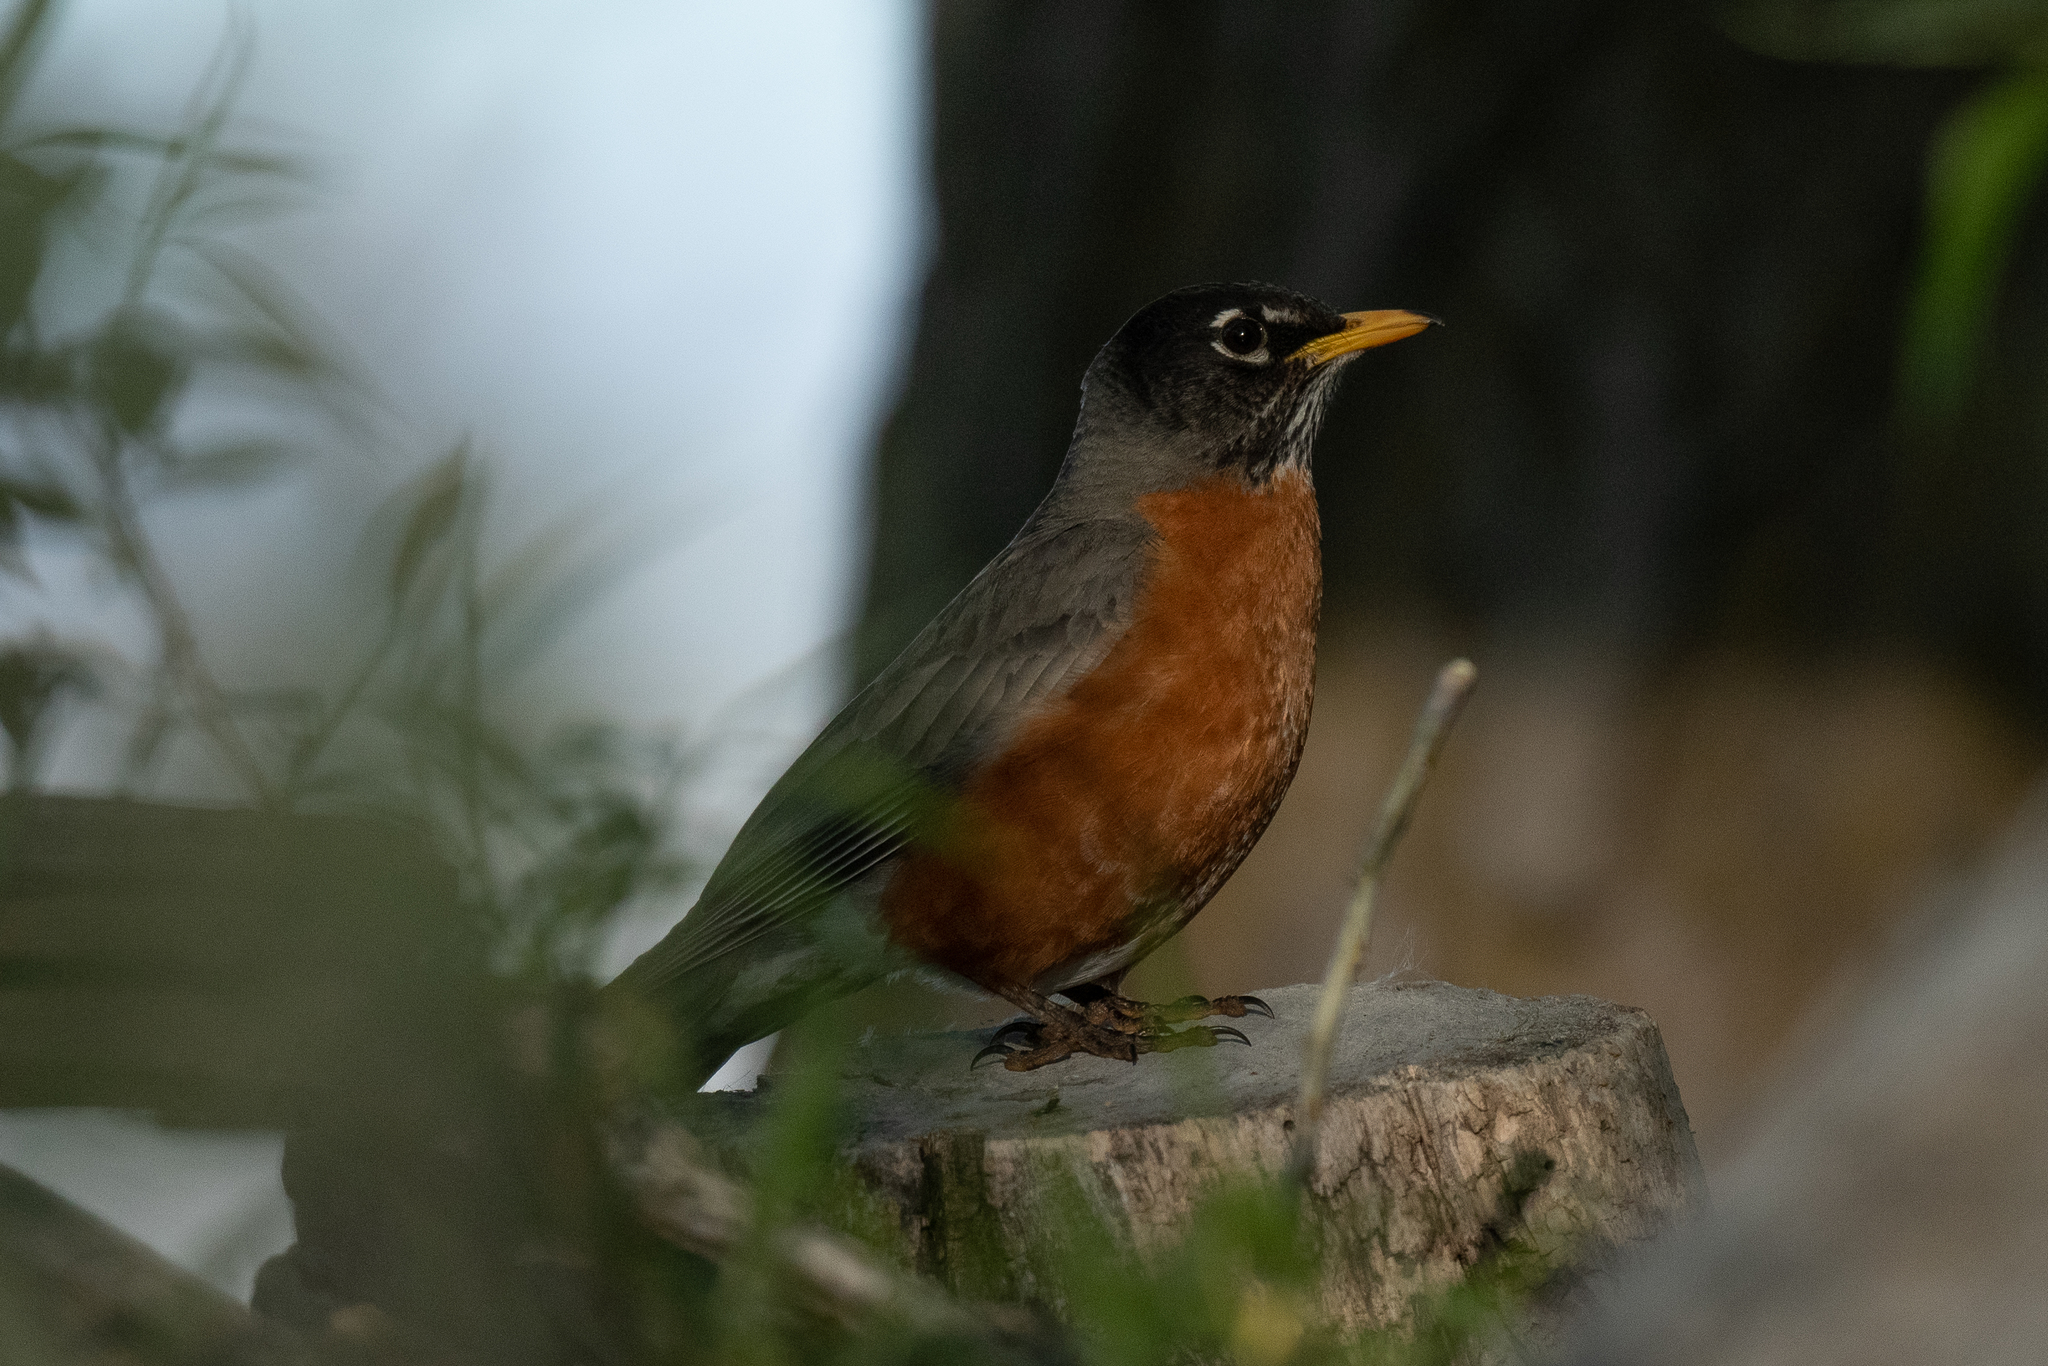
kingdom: Animalia
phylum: Chordata
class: Aves
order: Passeriformes
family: Turdidae
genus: Turdus
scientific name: Turdus migratorius
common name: American robin
